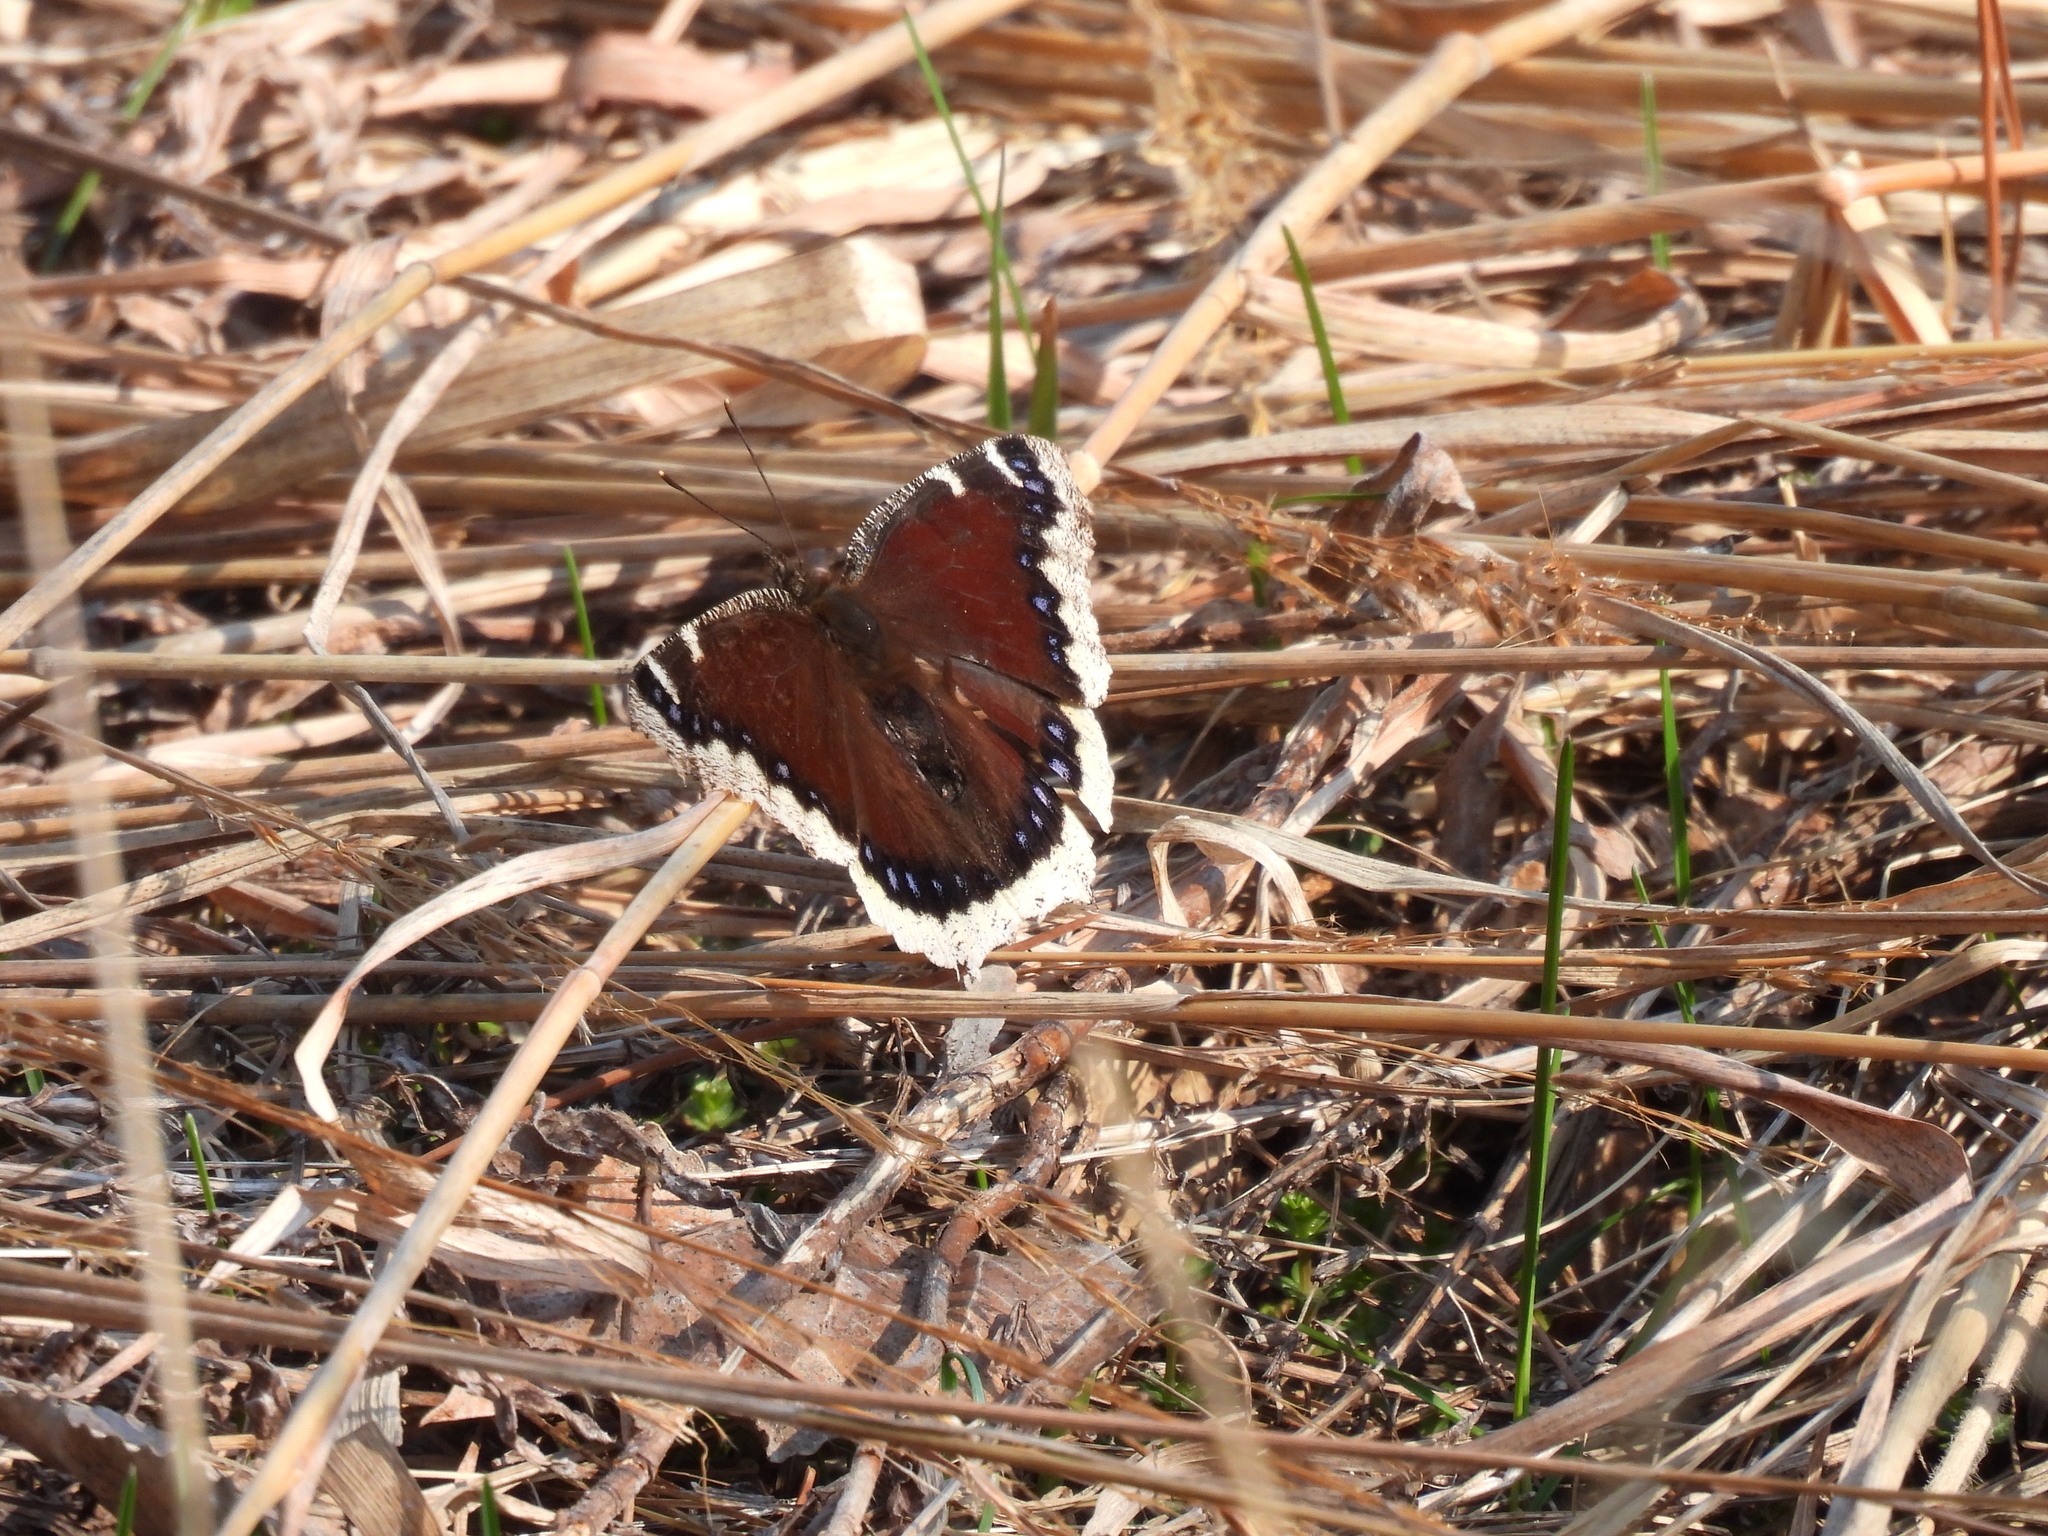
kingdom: Animalia
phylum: Arthropoda
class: Insecta
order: Lepidoptera
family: Nymphalidae
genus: Nymphalis
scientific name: Nymphalis antiopa
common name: Camberwell beauty
